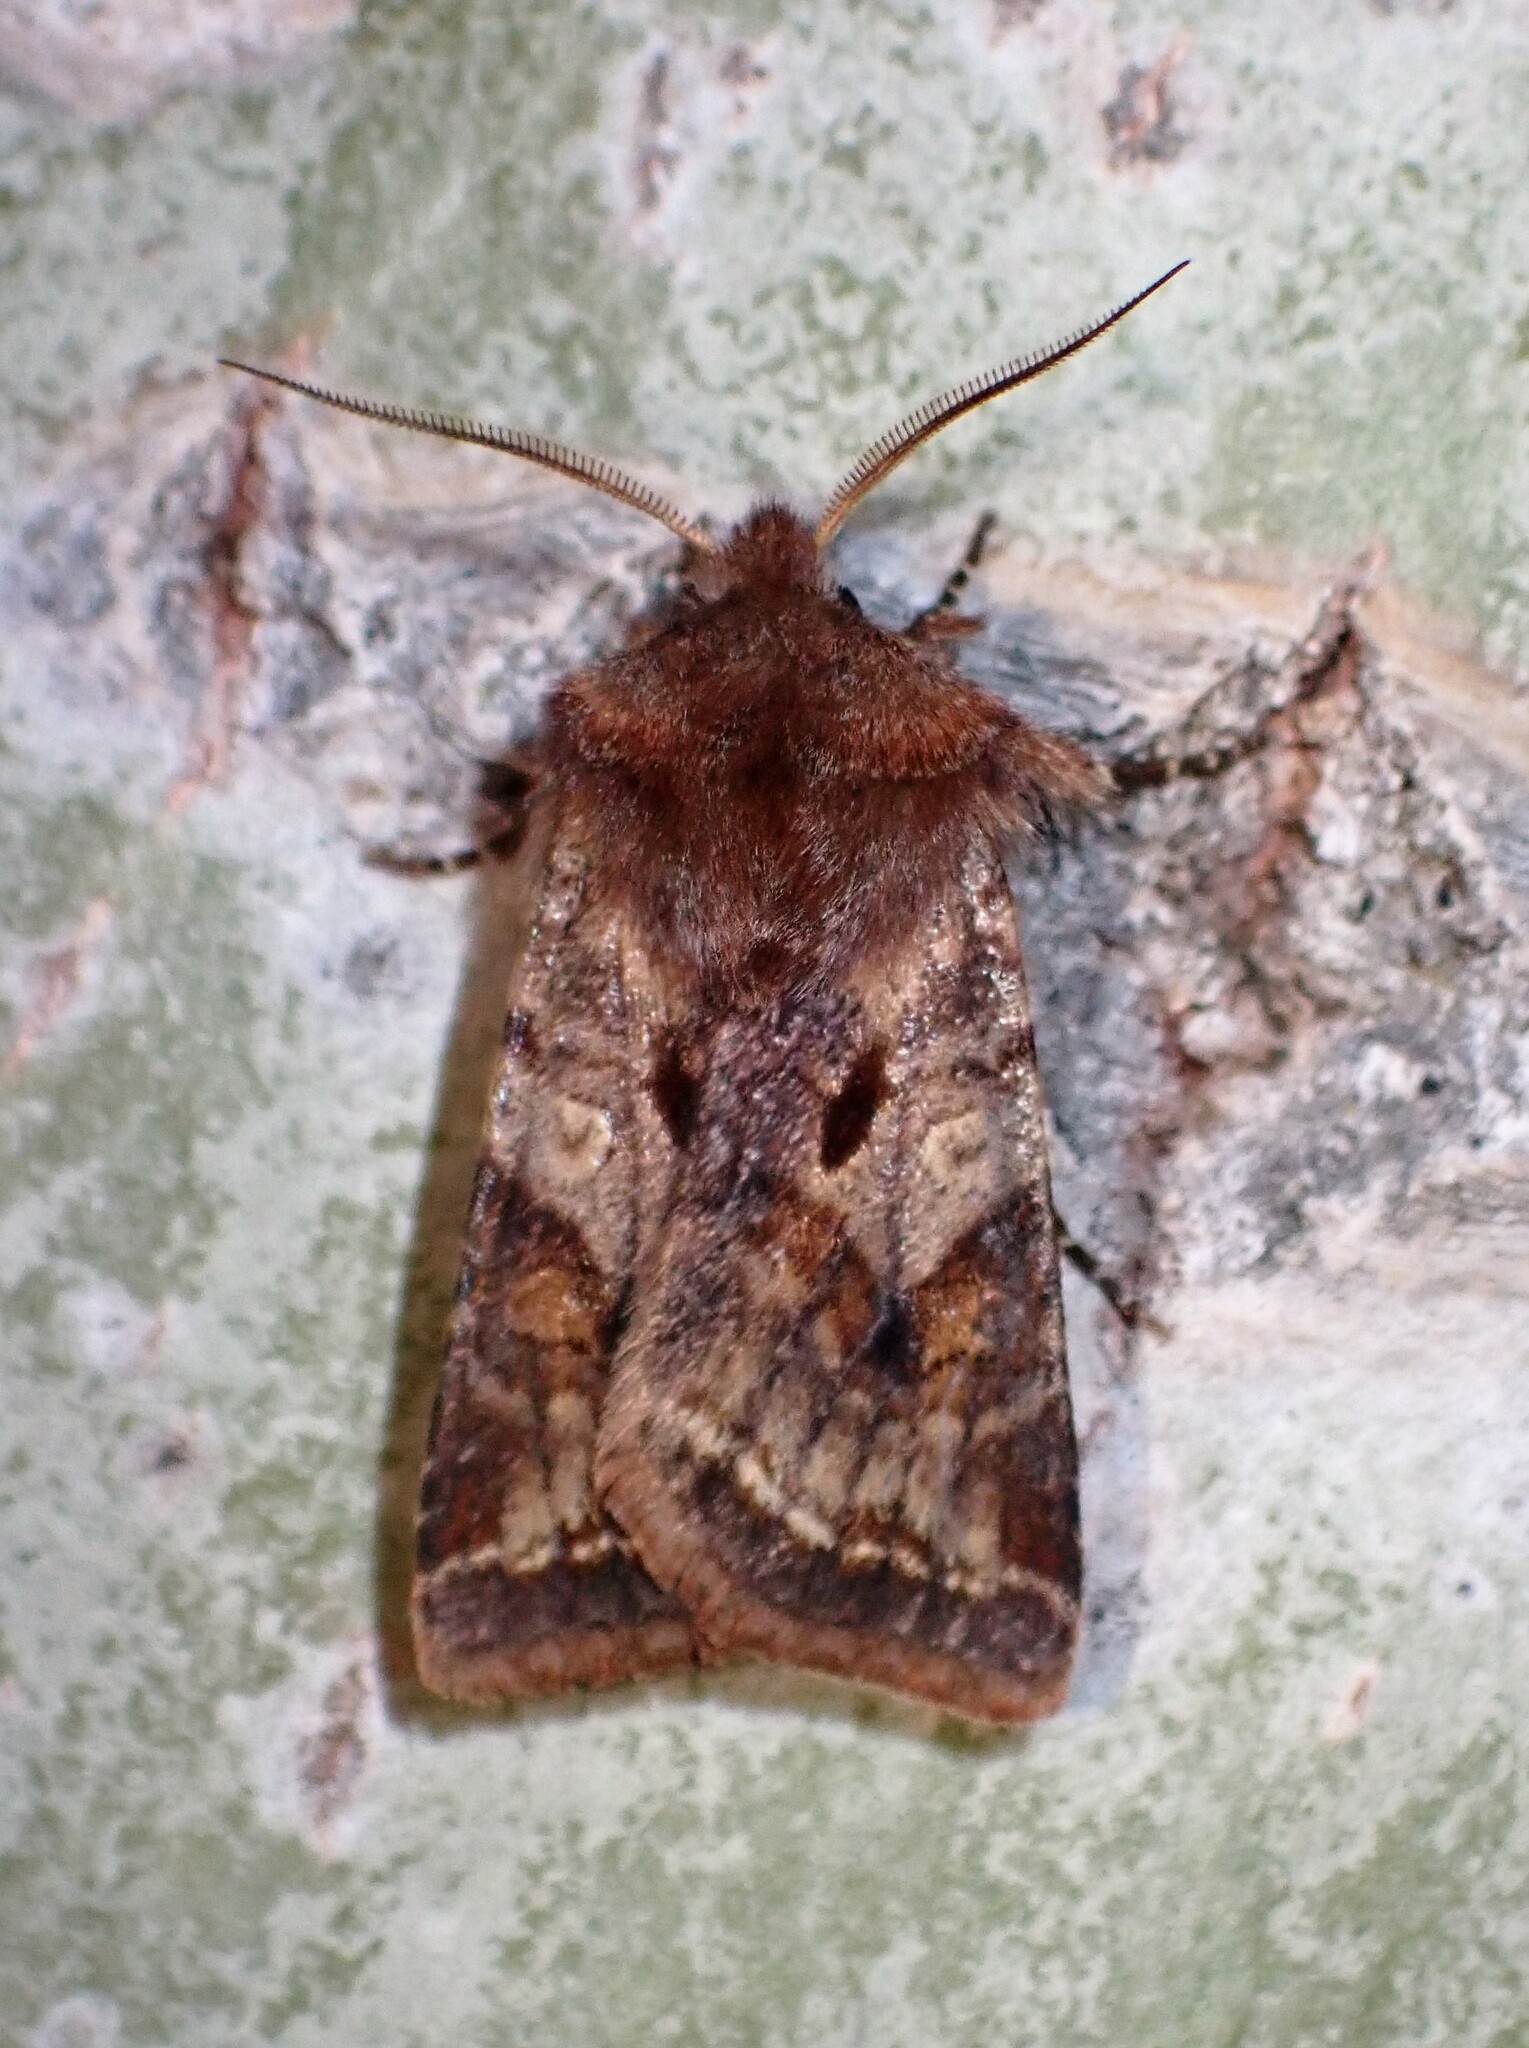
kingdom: Animalia
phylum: Arthropoda
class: Insecta
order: Lepidoptera
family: Noctuidae
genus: Cerastis
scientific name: Cerastis salicarum
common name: Willow dart
